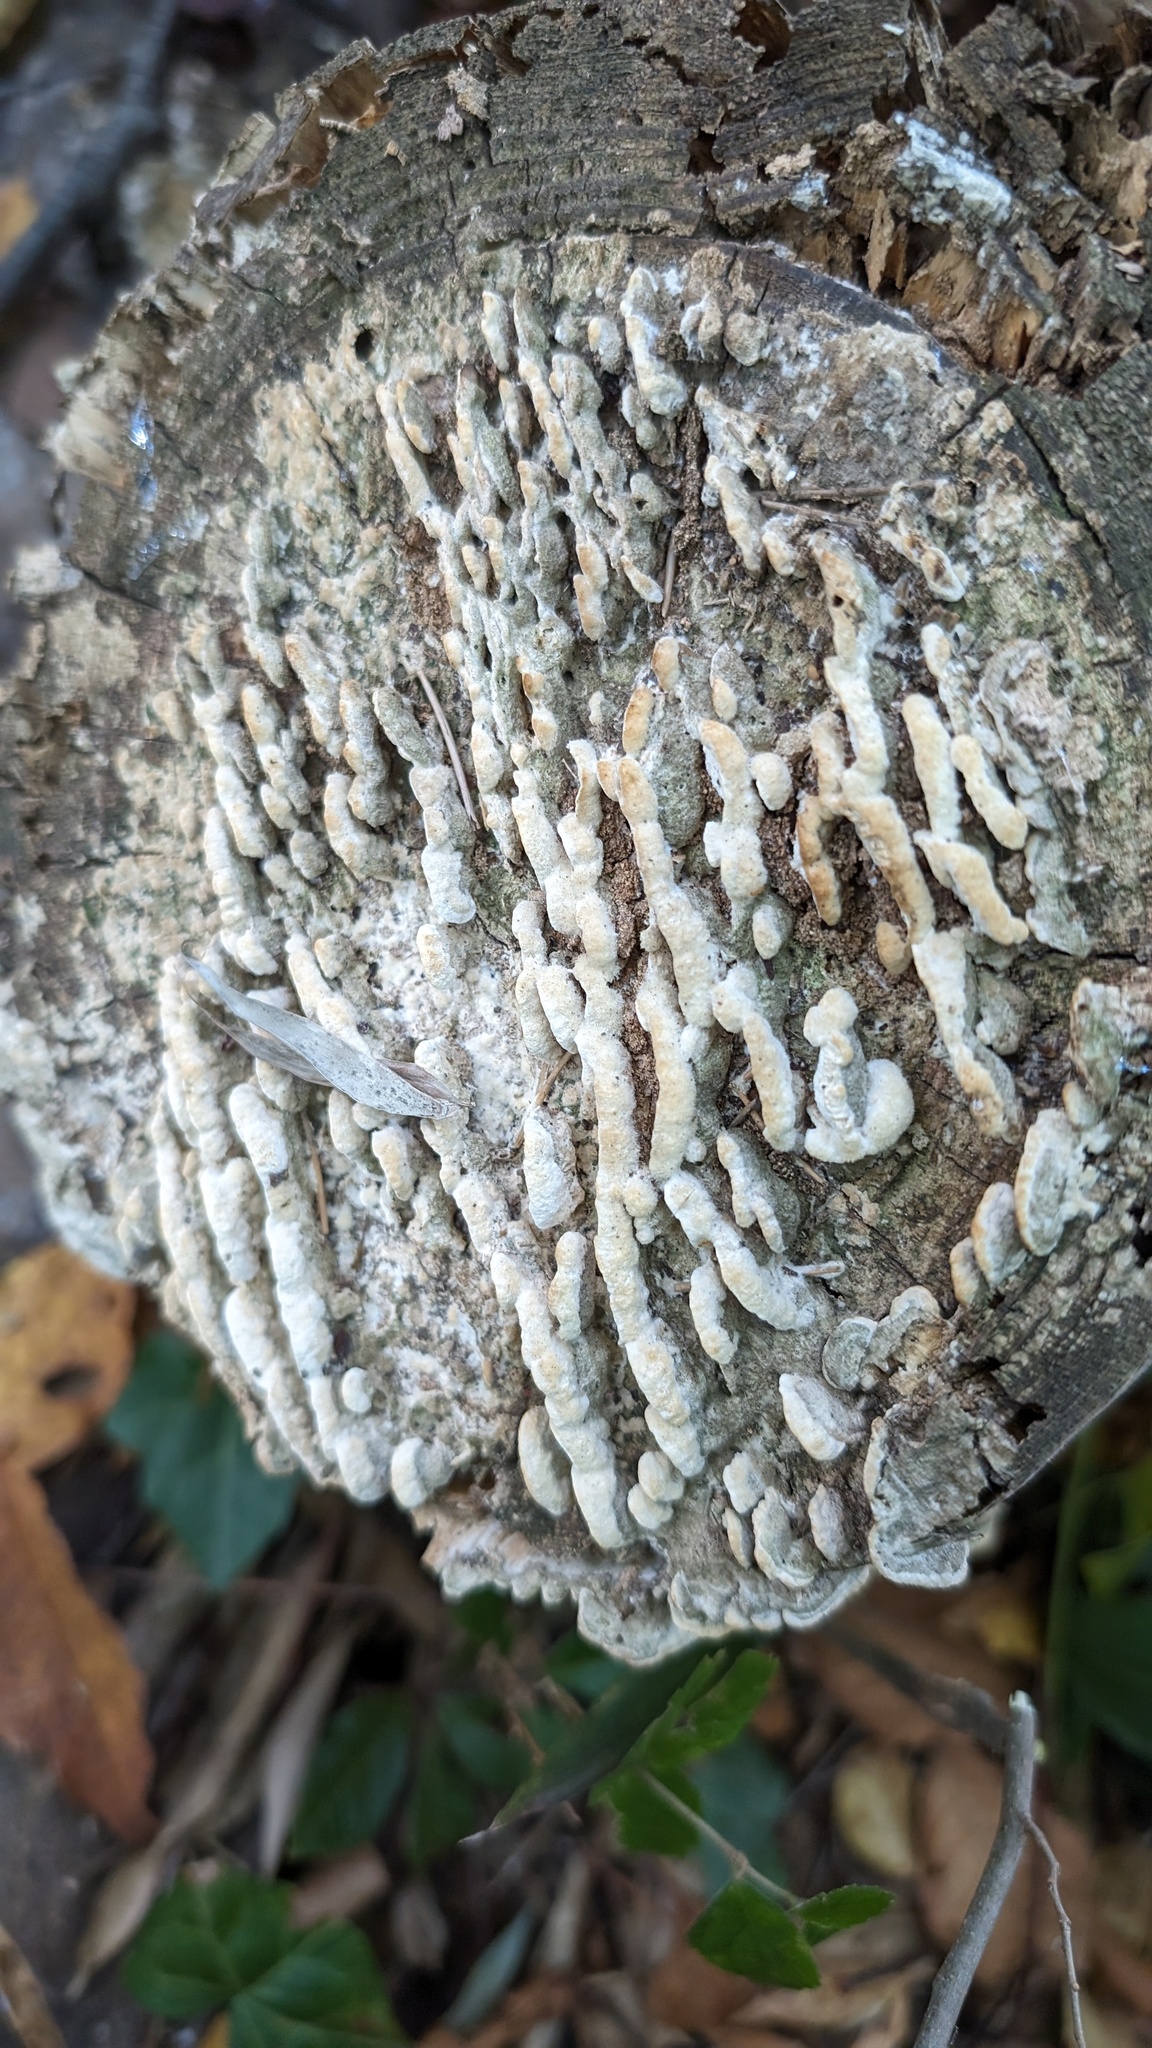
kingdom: Fungi
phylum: Basidiomycota
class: Agaricomycetes
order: Hymenochaetales
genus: Cyanotrama
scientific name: Cyanotrama
